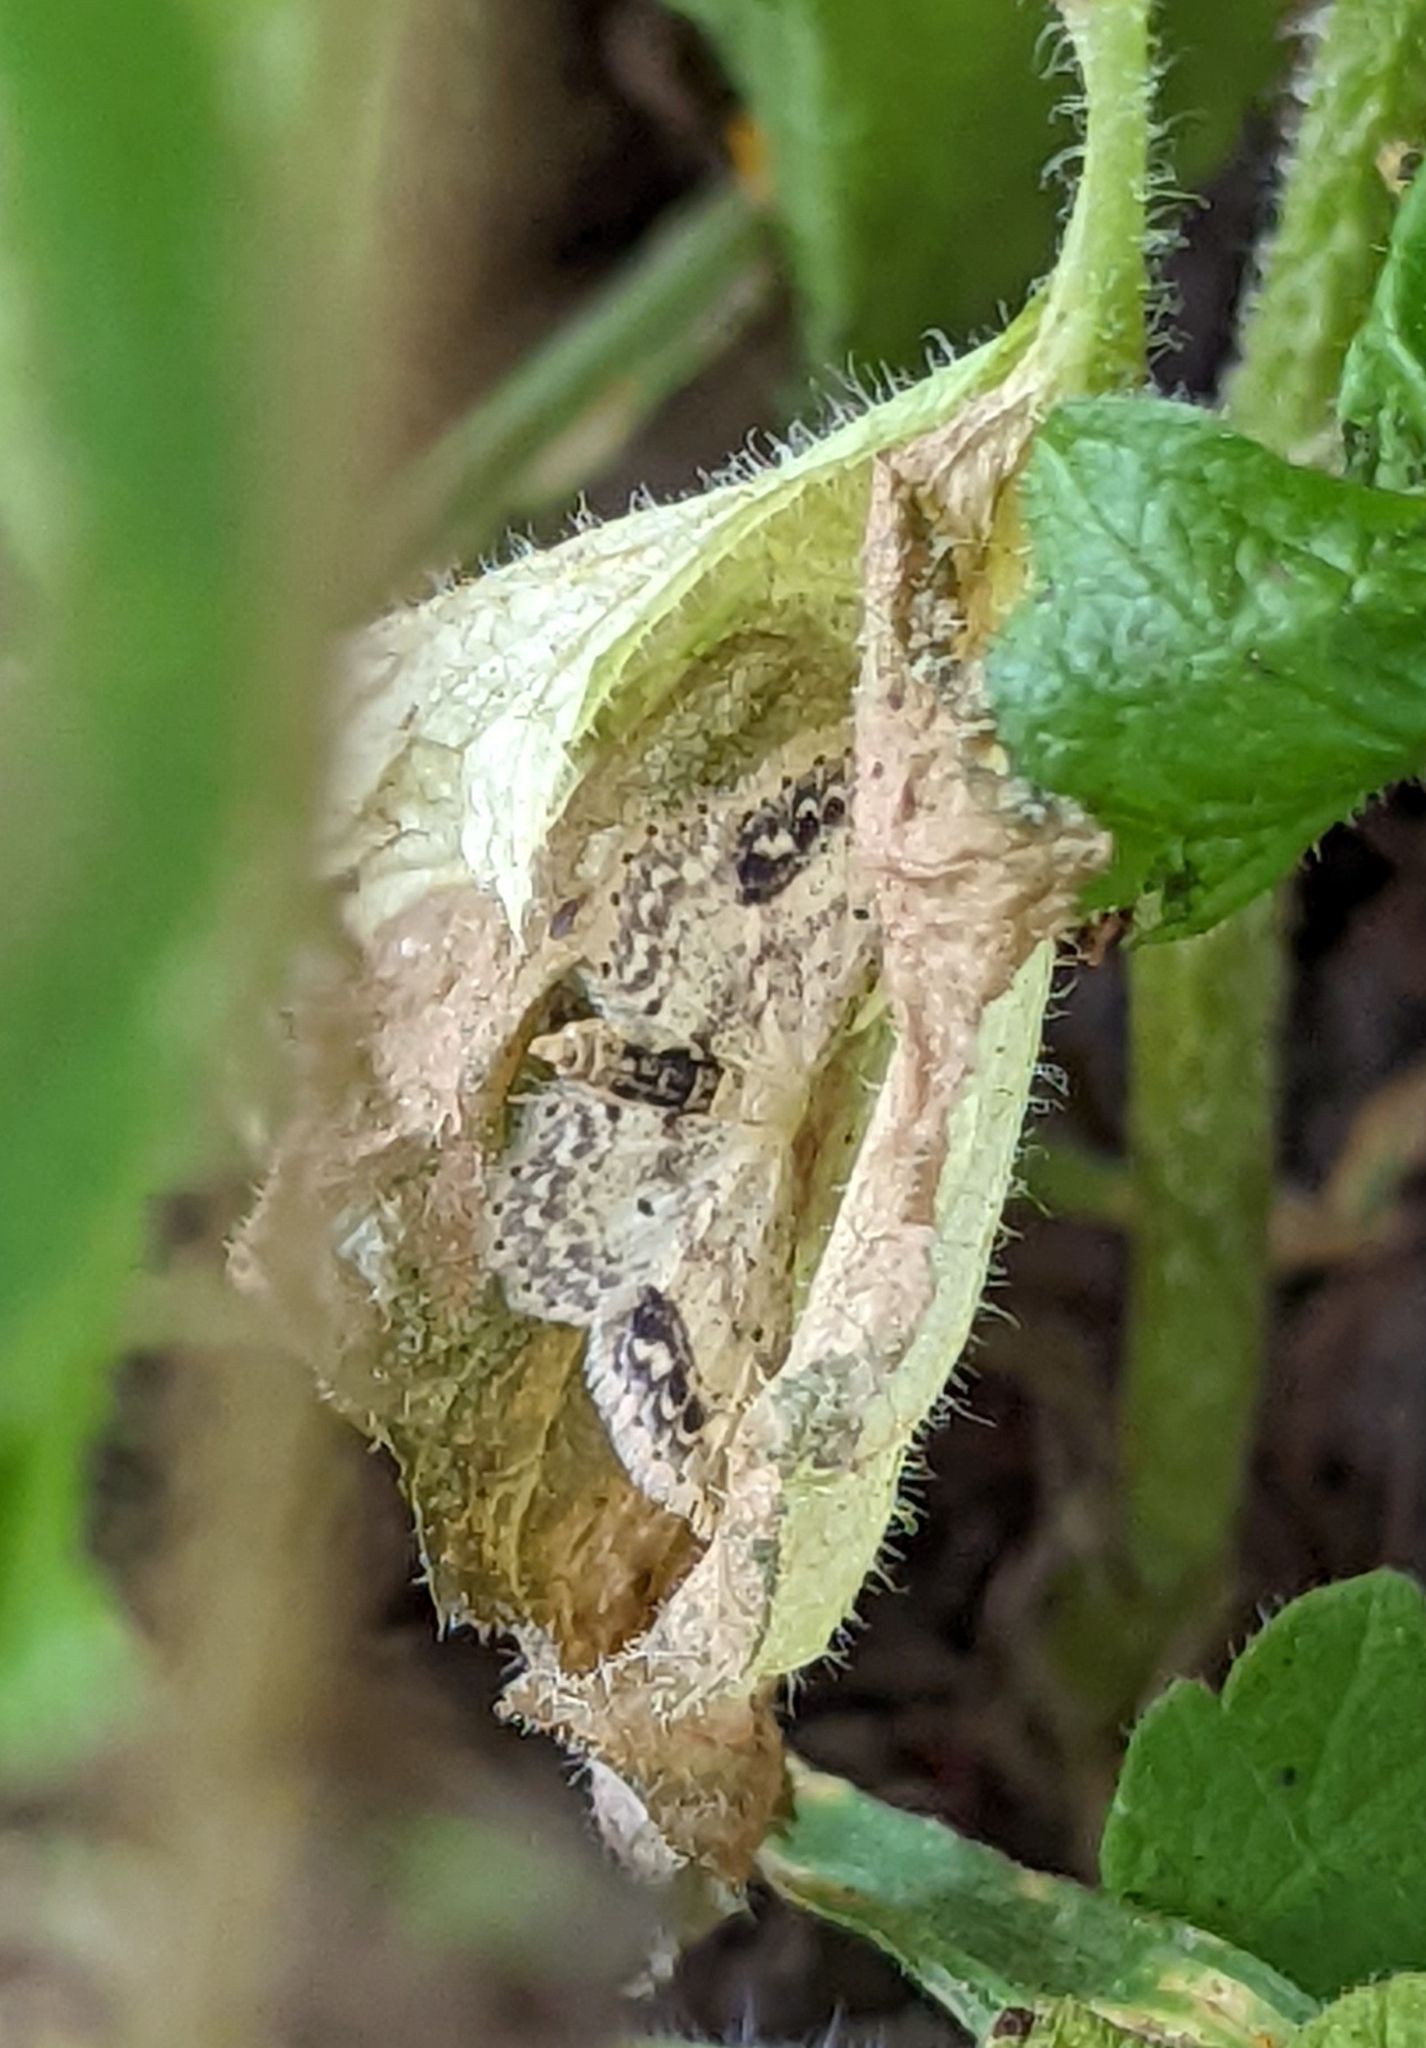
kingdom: Animalia
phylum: Arthropoda
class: Insecta
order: Lepidoptera
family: Geometridae
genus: Idaea
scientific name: Idaea dimidiata
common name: Single-dotted wave
